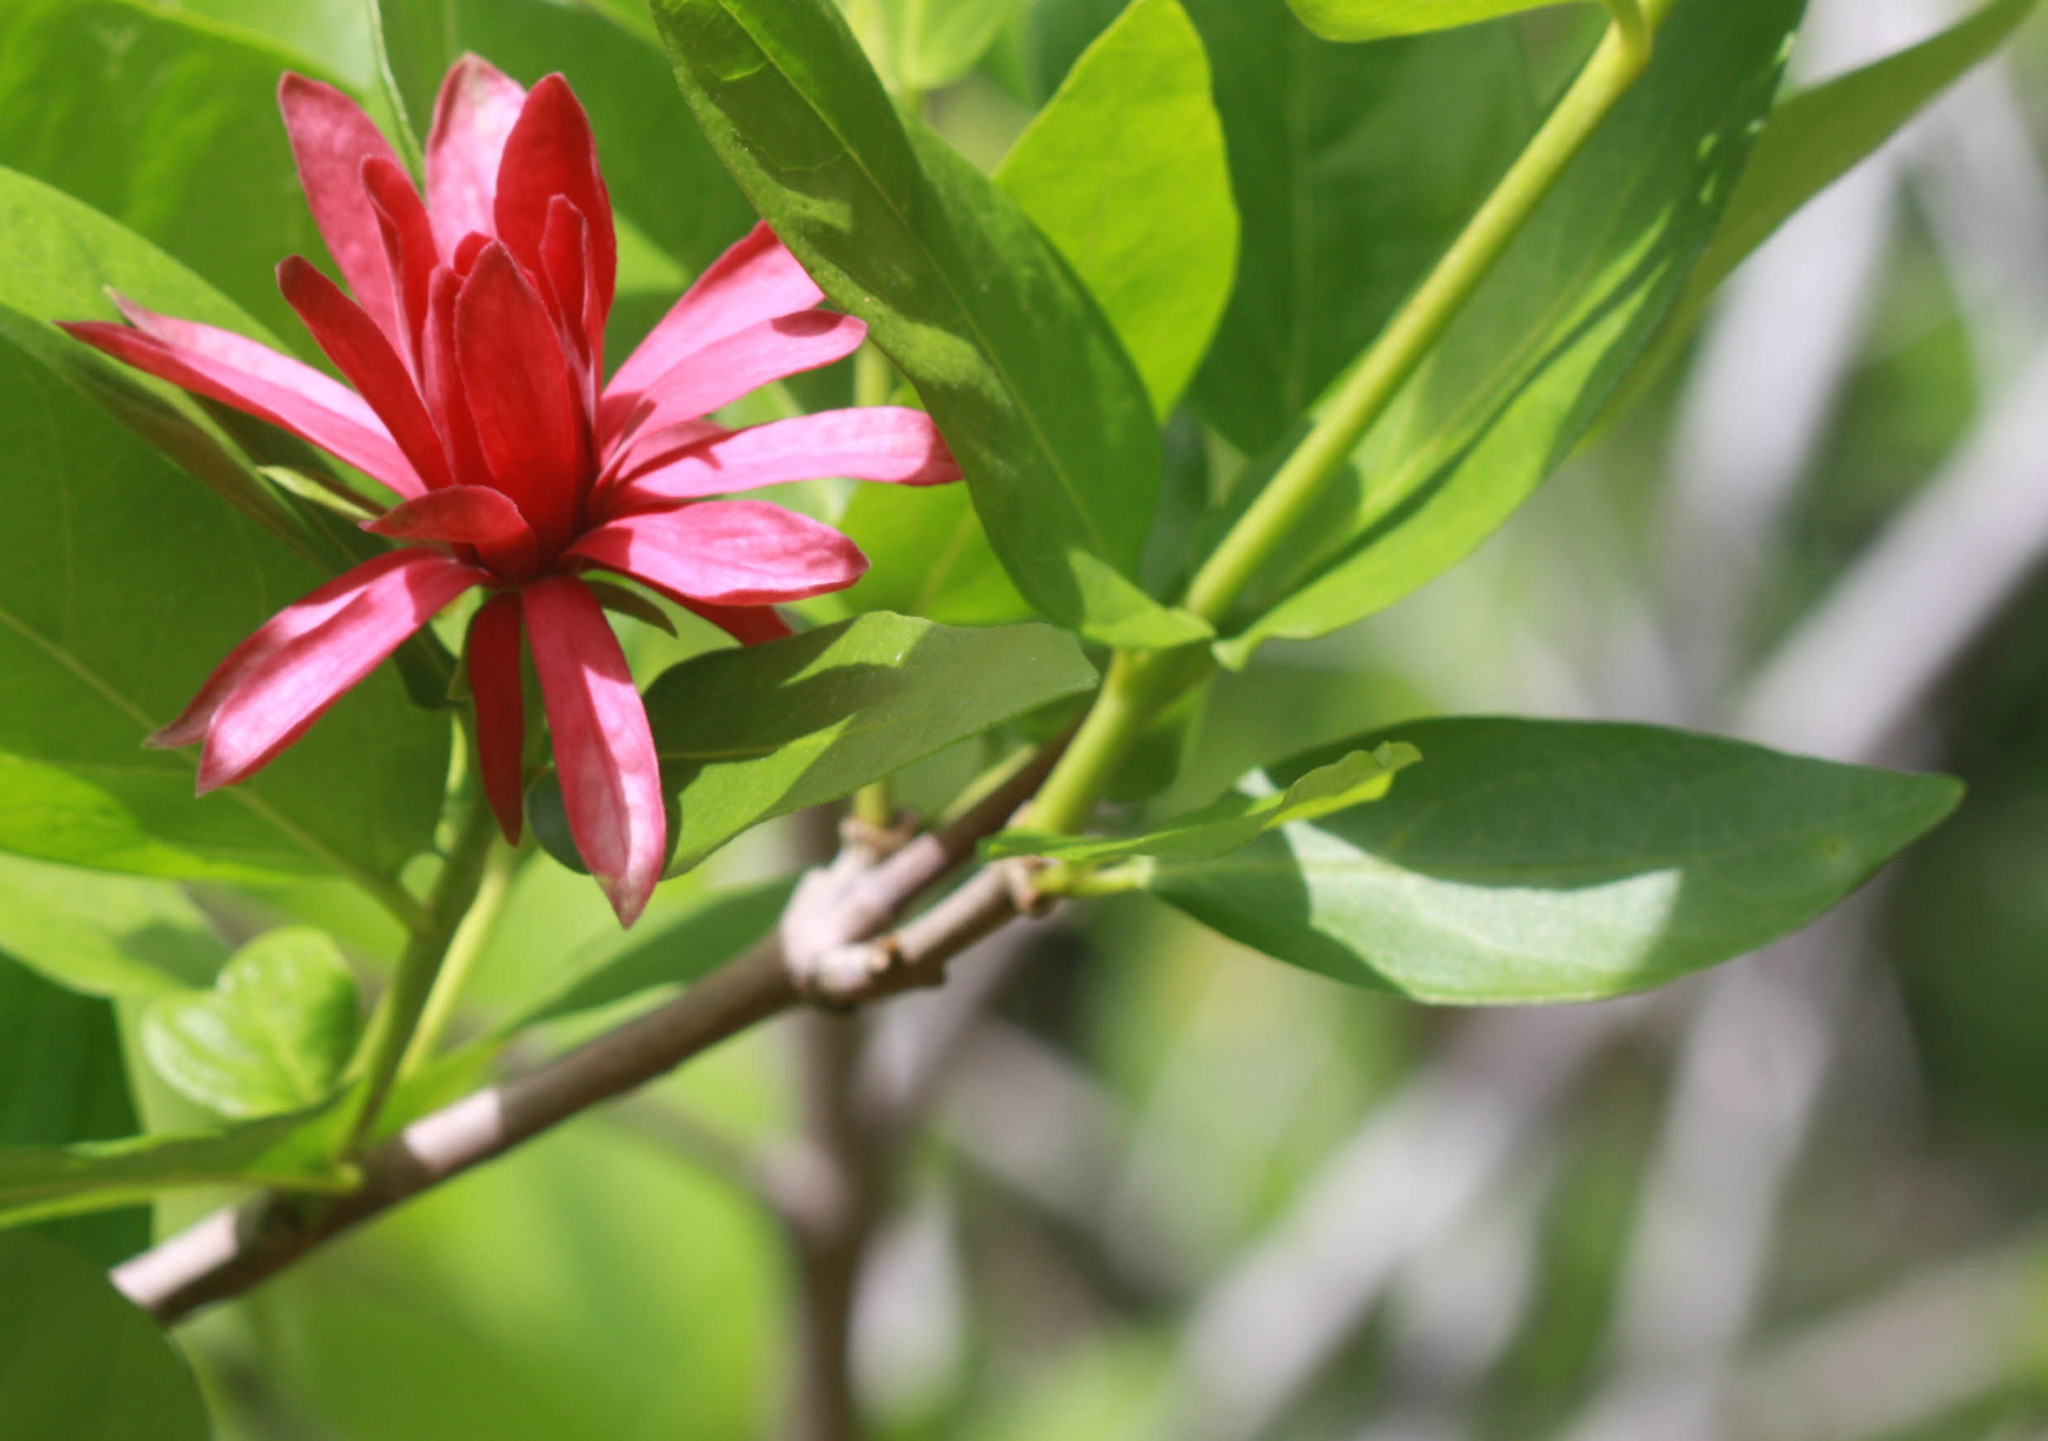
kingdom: Plantae
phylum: Tracheophyta
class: Magnoliopsida
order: Laurales
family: Calycanthaceae
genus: Calycanthus
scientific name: Calycanthus occidentalis
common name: California spicebush
